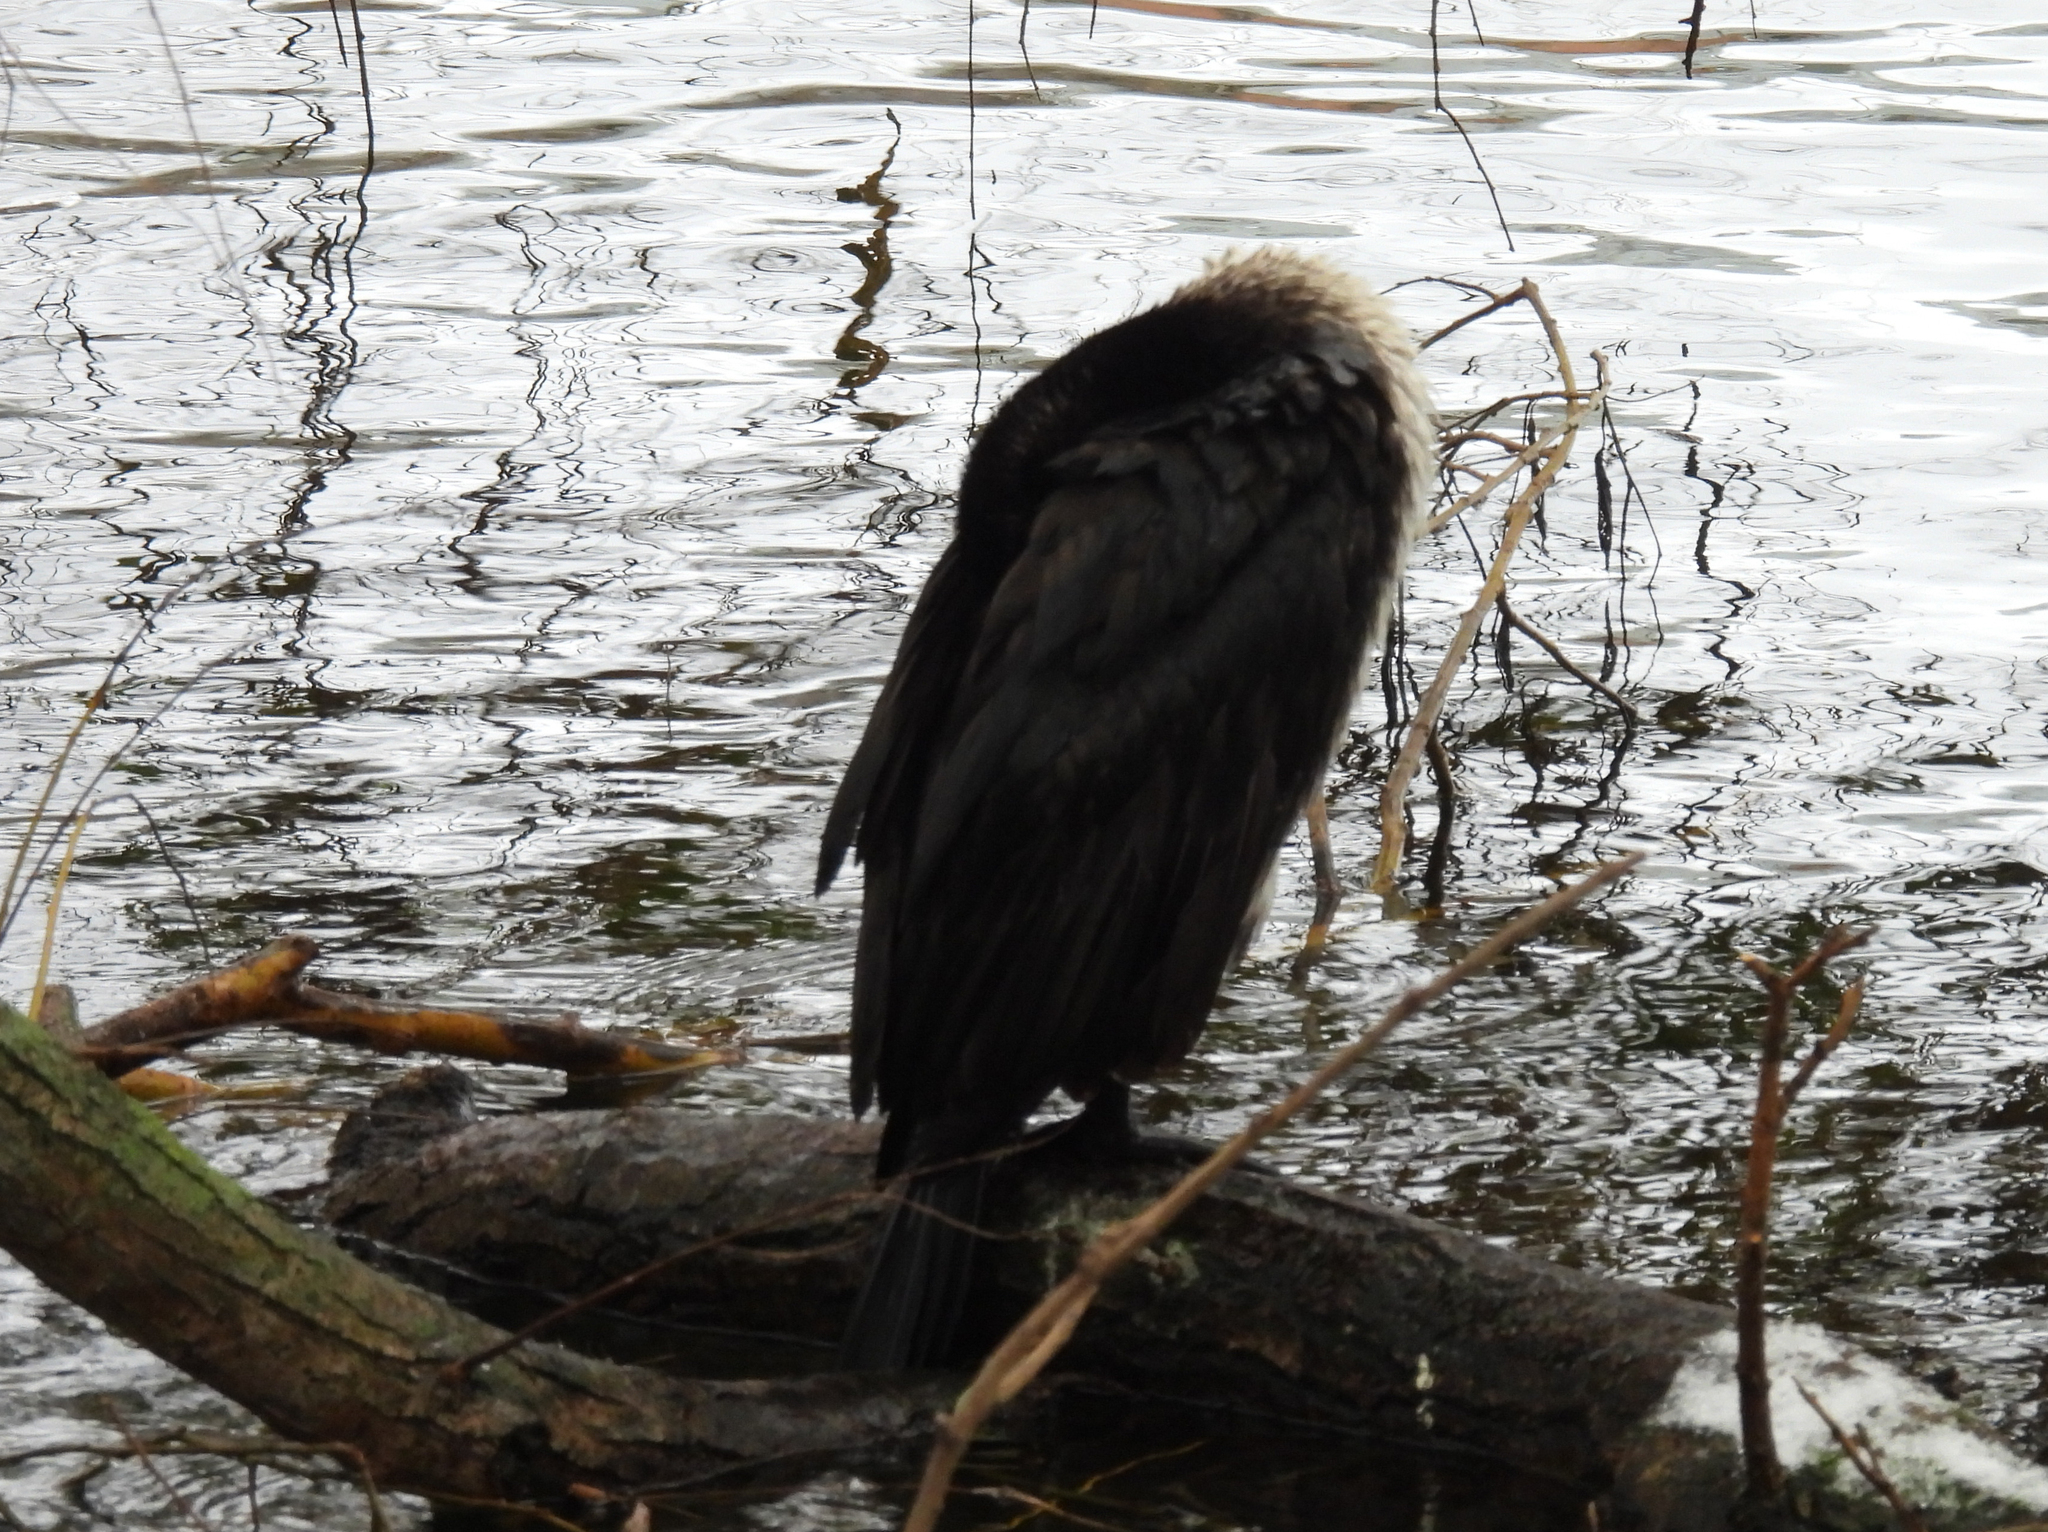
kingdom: Animalia
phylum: Chordata
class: Aves
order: Suliformes
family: Phalacrocoracidae
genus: Phalacrocorax
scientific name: Phalacrocorax carbo
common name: Great cormorant
